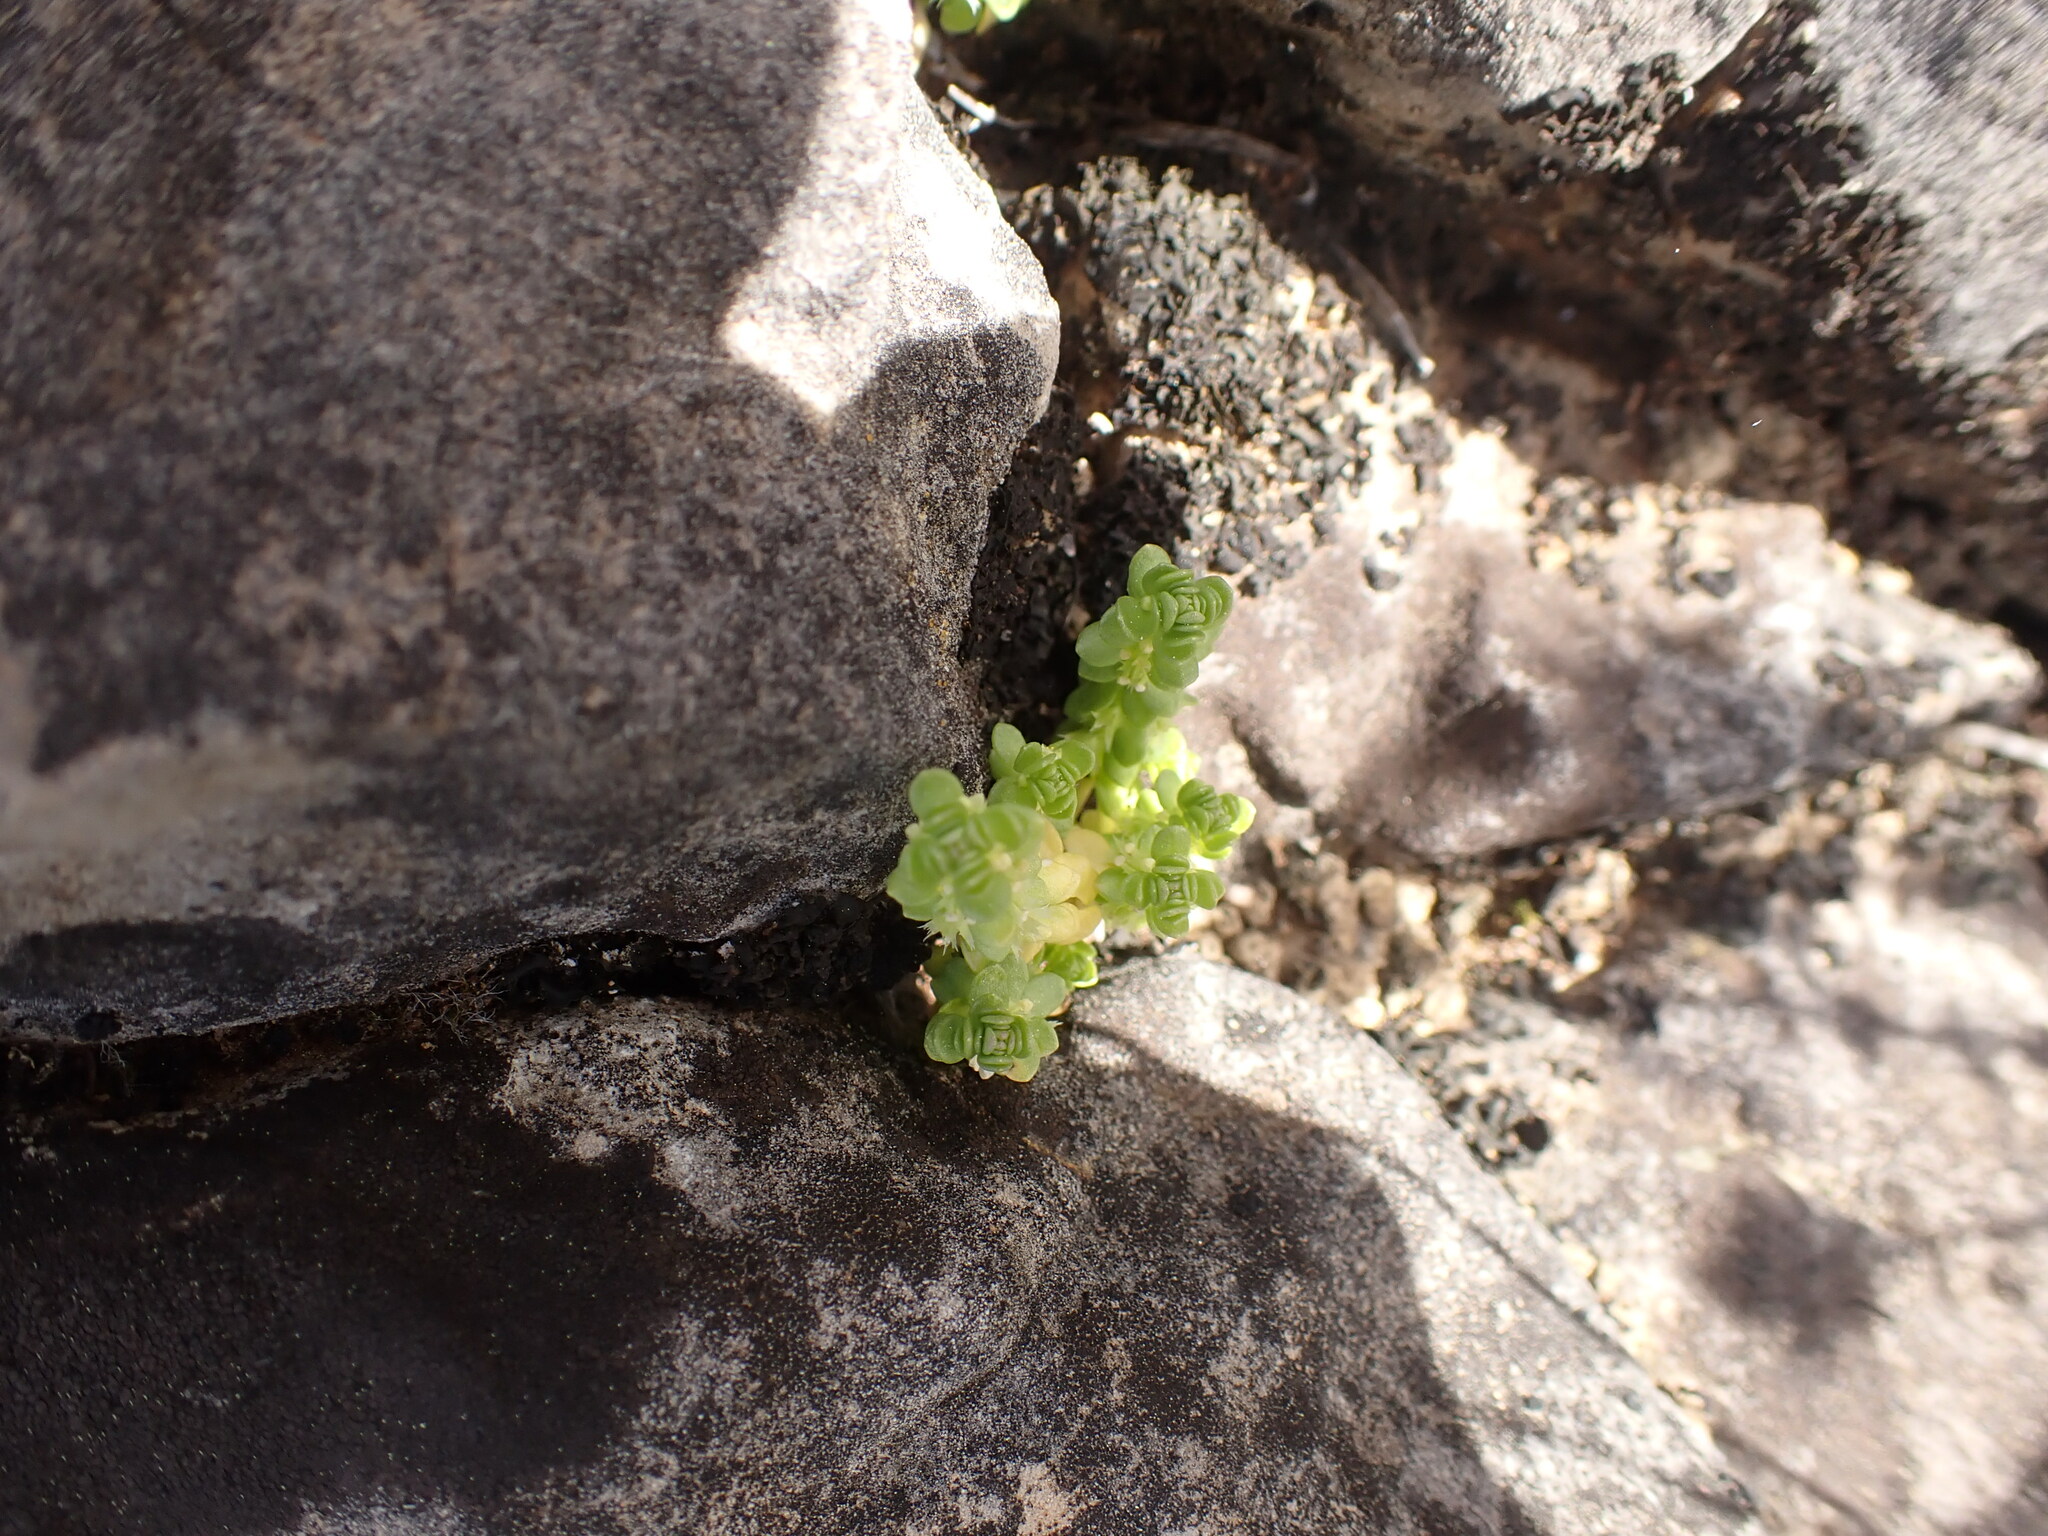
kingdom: Plantae
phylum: Tracheophyta
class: Magnoliopsida
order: Gentianales
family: Rubiaceae
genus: Valantia
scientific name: Valantia muralis
